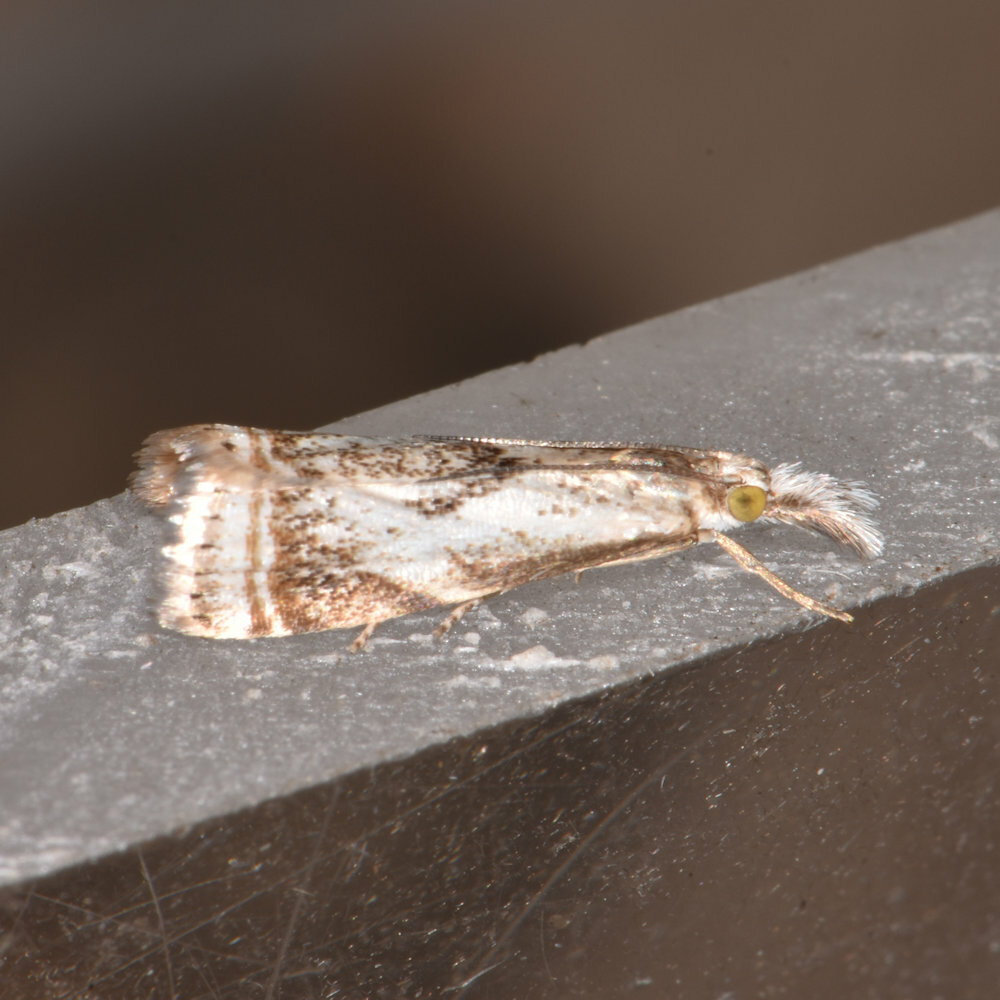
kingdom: Animalia
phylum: Arthropoda
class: Insecta
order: Lepidoptera
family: Crambidae
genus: Microcrambus
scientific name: Microcrambus elegans
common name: Elegant grass-veneer
